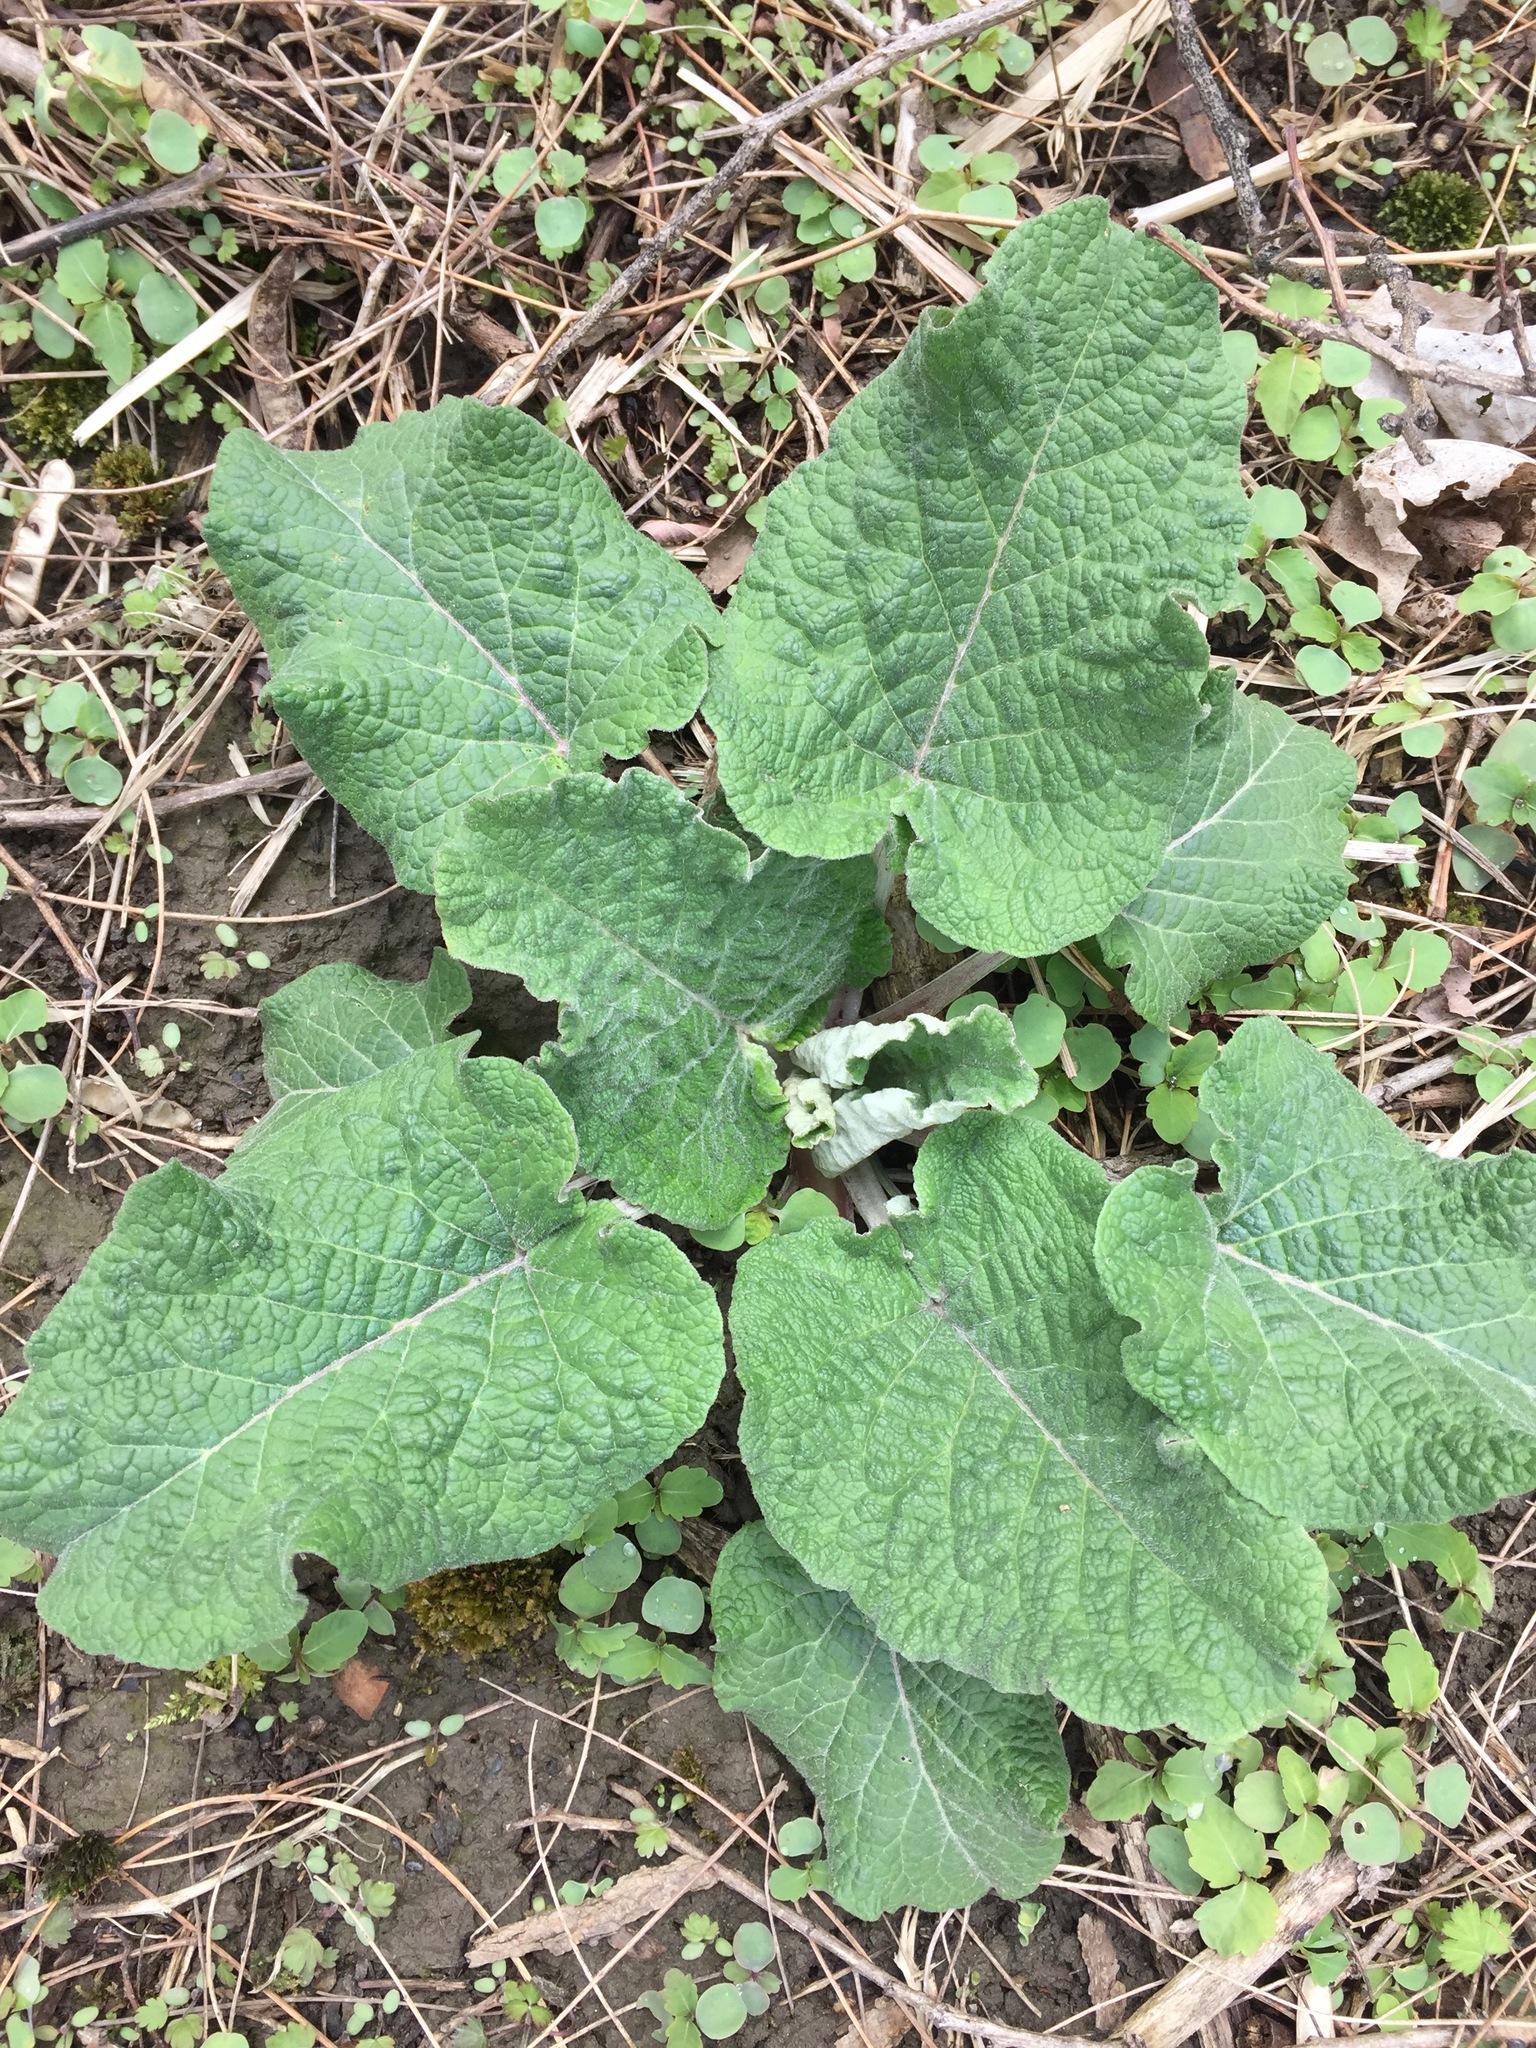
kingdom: Plantae
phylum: Tracheophyta
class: Magnoliopsida
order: Asterales
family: Asteraceae
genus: Arctium
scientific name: Arctium
